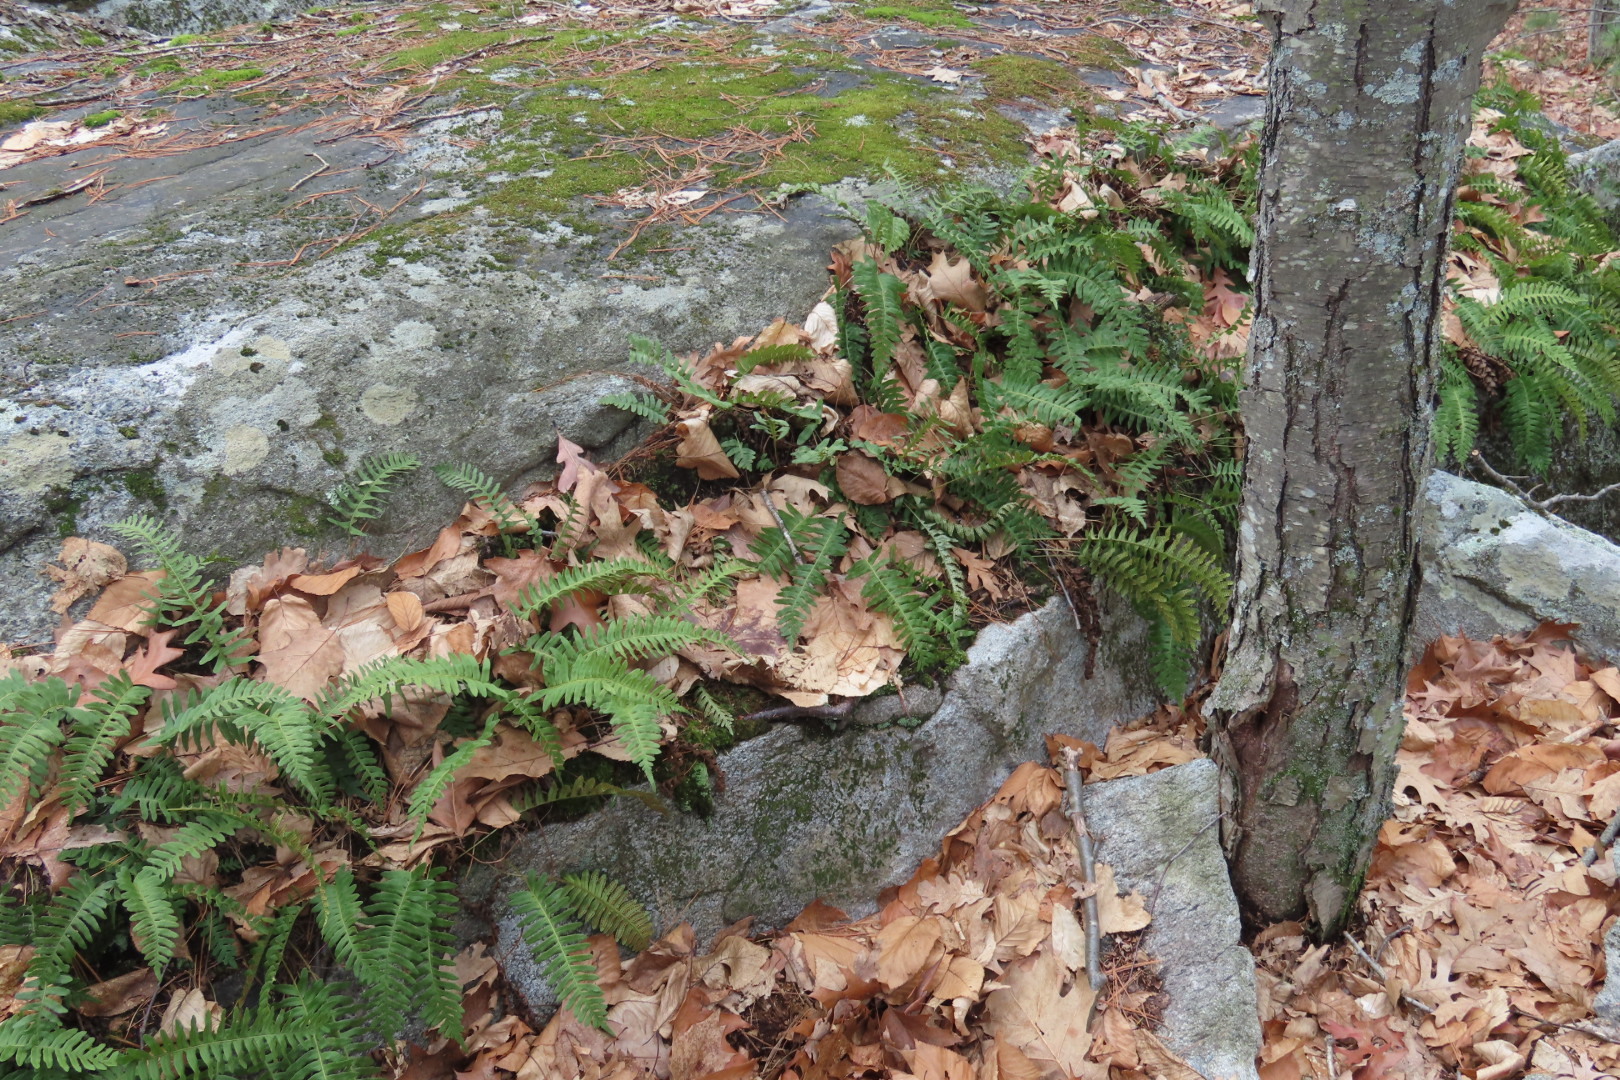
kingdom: Plantae
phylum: Tracheophyta
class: Polypodiopsida
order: Polypodiales
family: Polypodiaceae
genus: Polypodium
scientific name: Polypodium virginianum
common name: American wall fern
